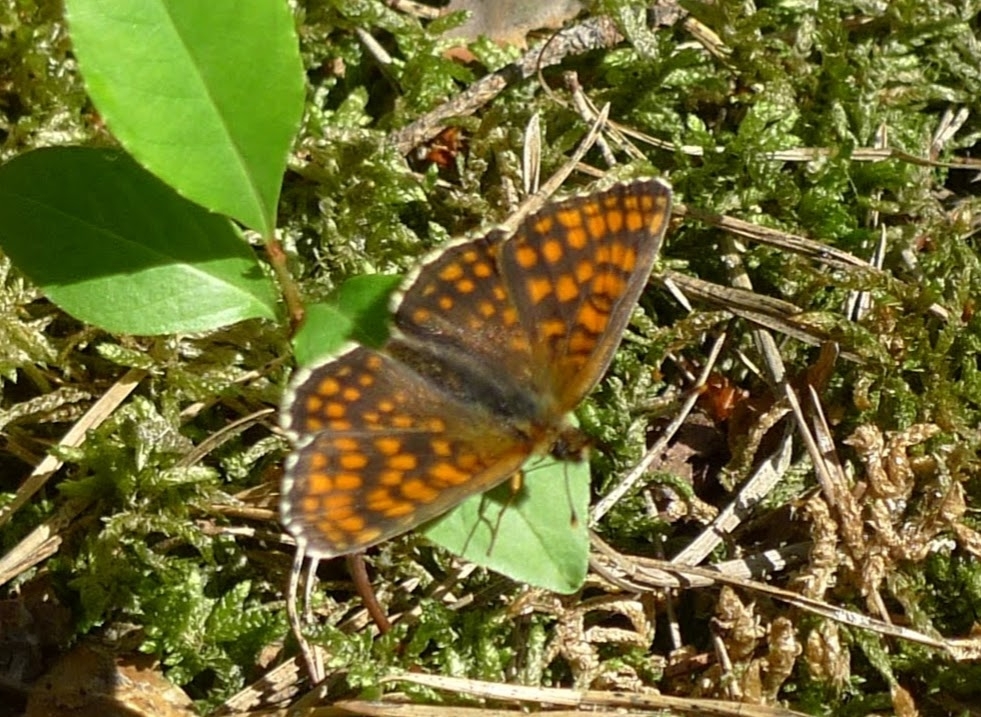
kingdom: Animalia
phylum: Arthropoda
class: Insecta
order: Lepidoptera
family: Nymphalidae
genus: Melitaea
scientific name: Melitaea athalia
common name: Heath fritillary
